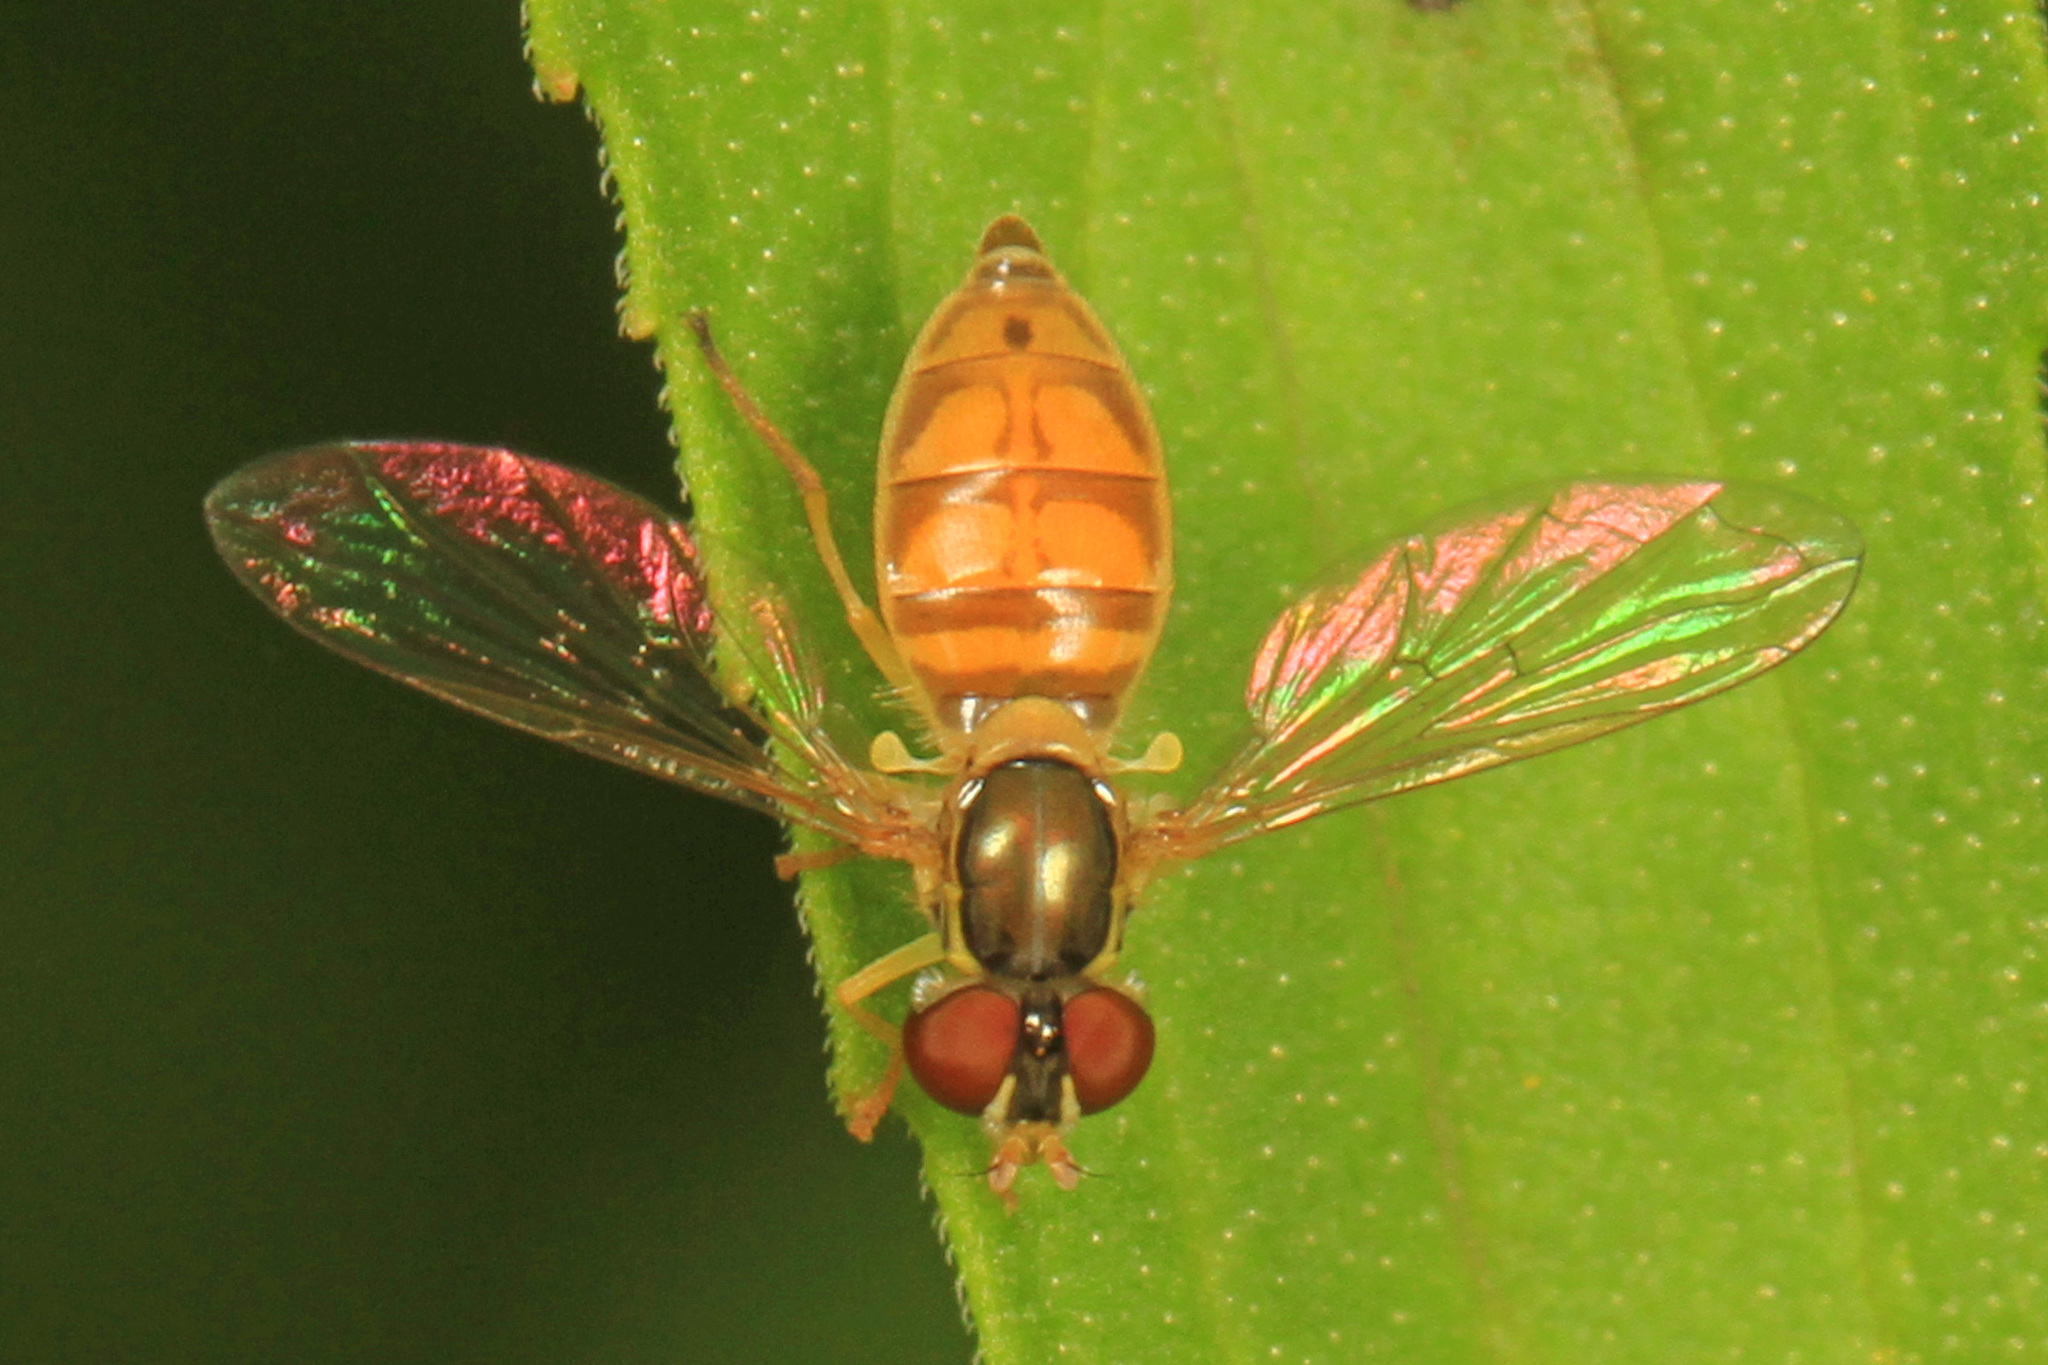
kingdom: Animalia
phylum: Arthropoda
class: Insecta
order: Diptera
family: Syrphidae
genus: Toxomerus
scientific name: Toxomerus marginatus
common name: Syrphid fly
